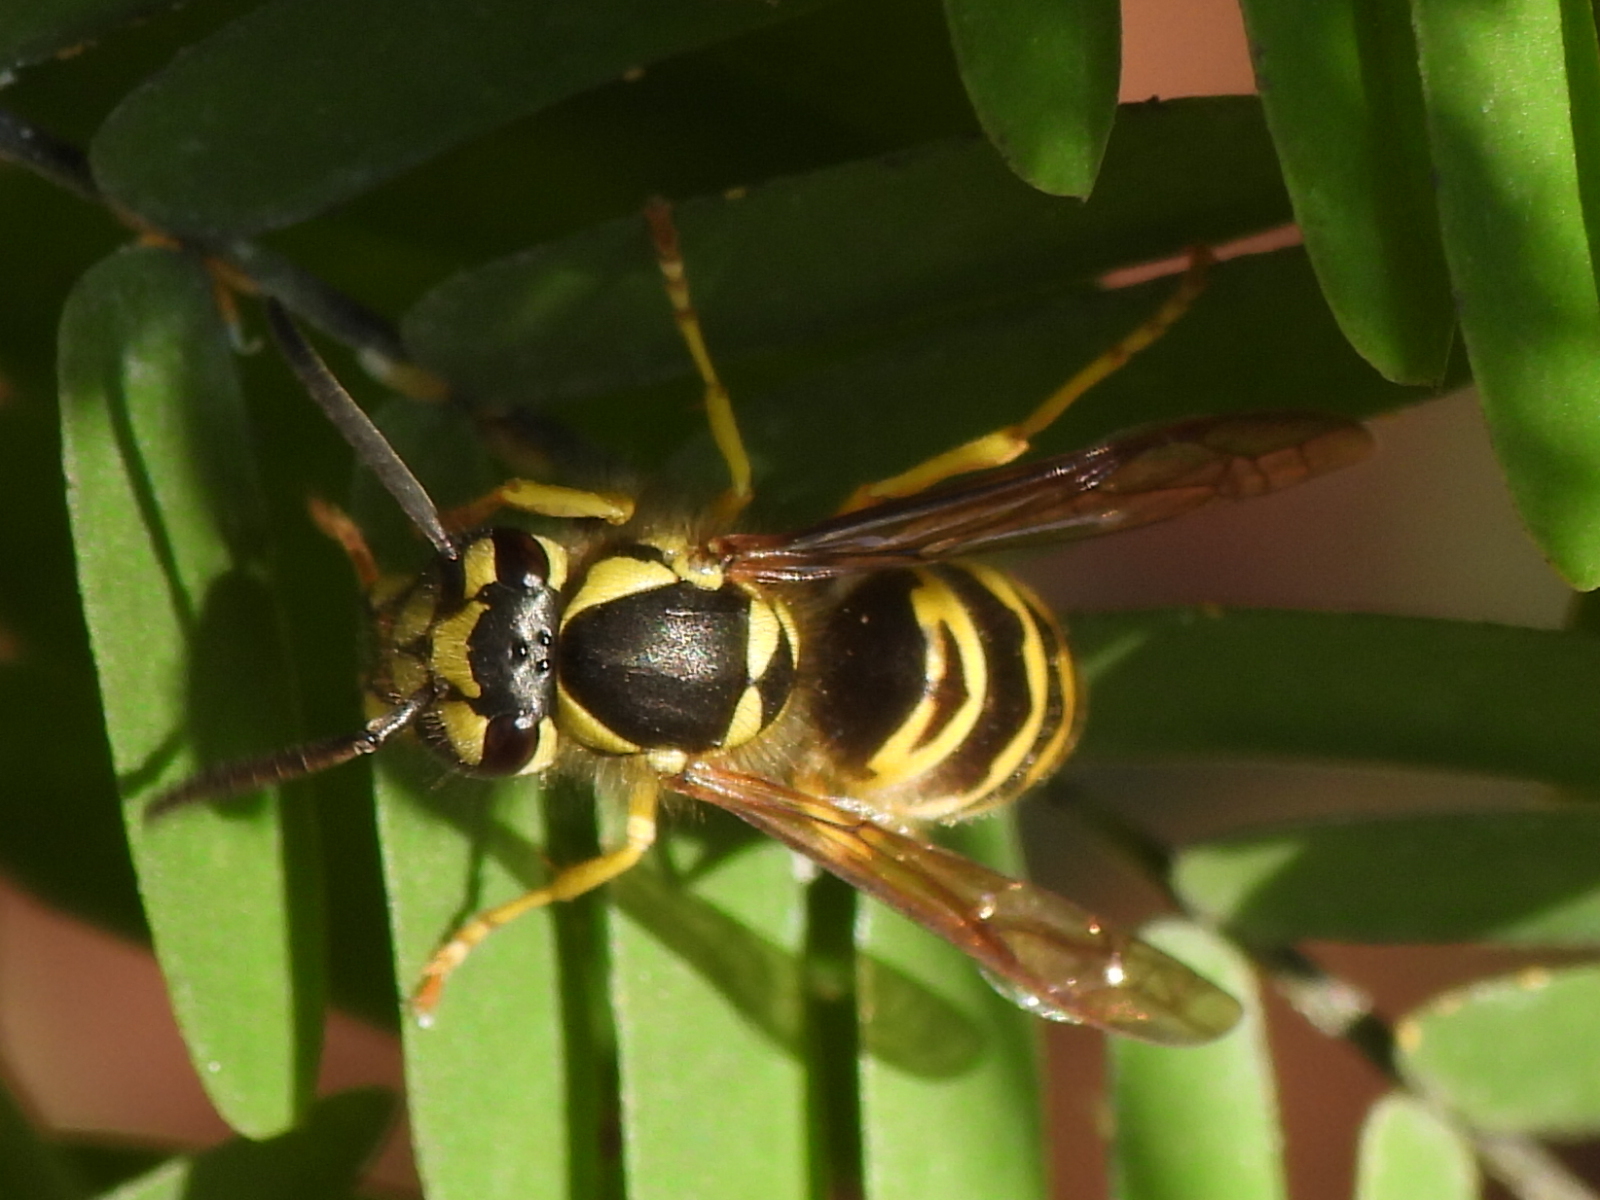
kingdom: Animalia
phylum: Arthropoda
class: Insecta
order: Hymenoptera
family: Vespidae
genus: Vespula
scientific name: Vespula maculifrons
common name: Eastern yellowjacket
